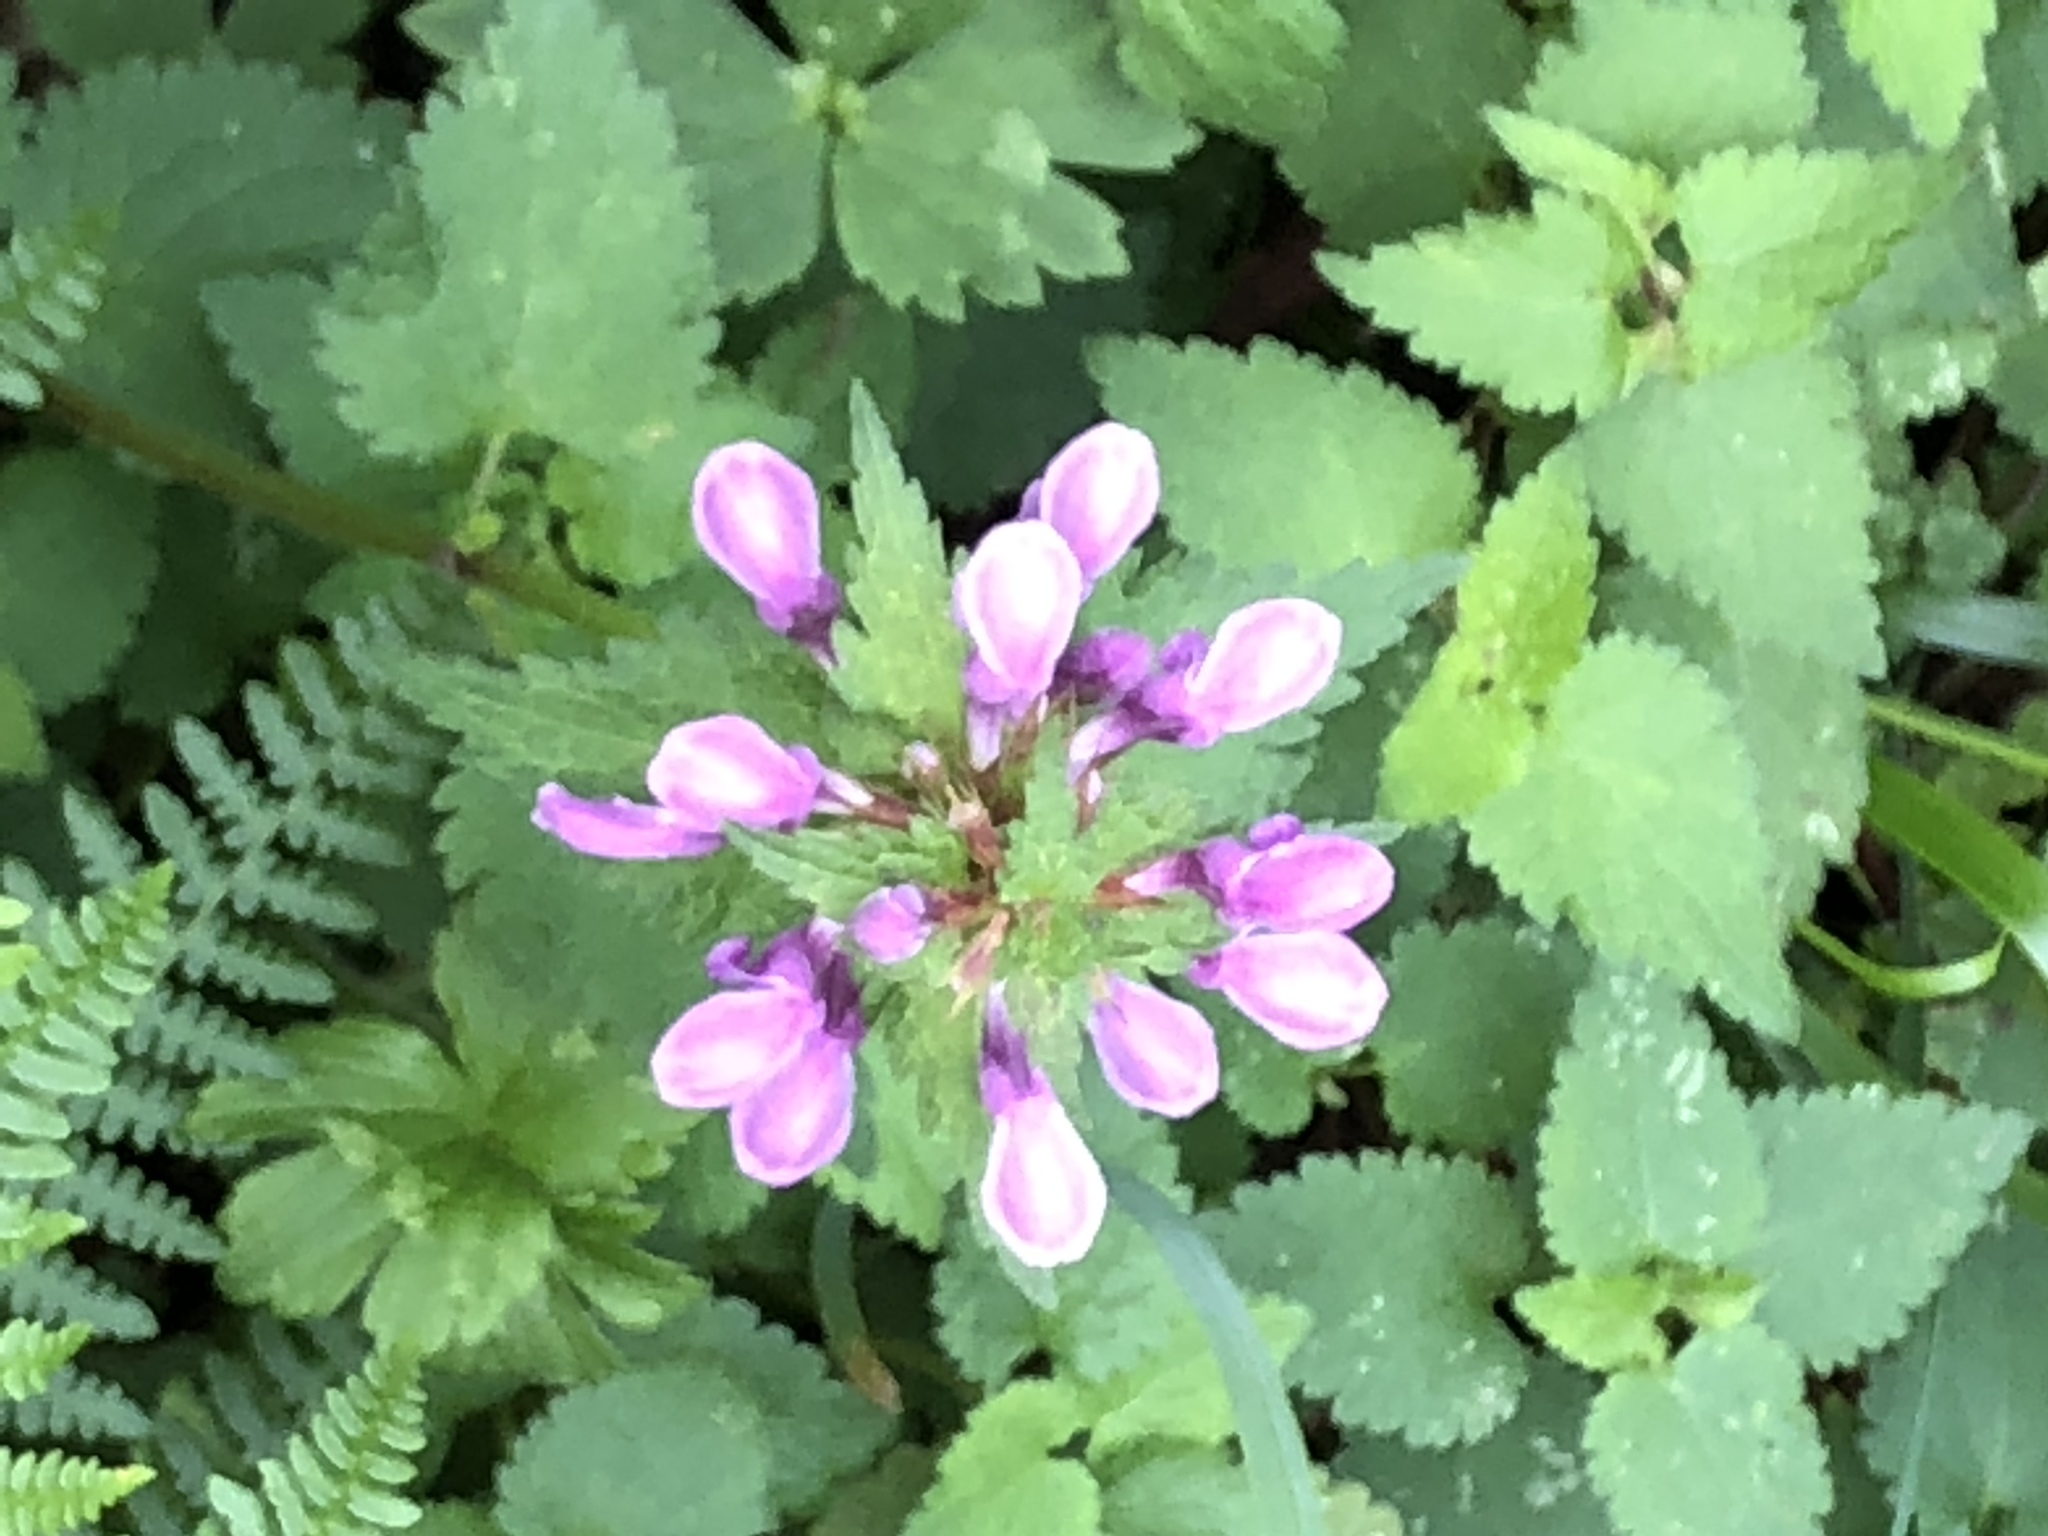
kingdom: Plantae
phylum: Tracheophyta
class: Magnoliopsida
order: Lamiales
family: Lamiaceae
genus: Lamium
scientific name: Lamium maculatum
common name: Spotted dead-nettle
